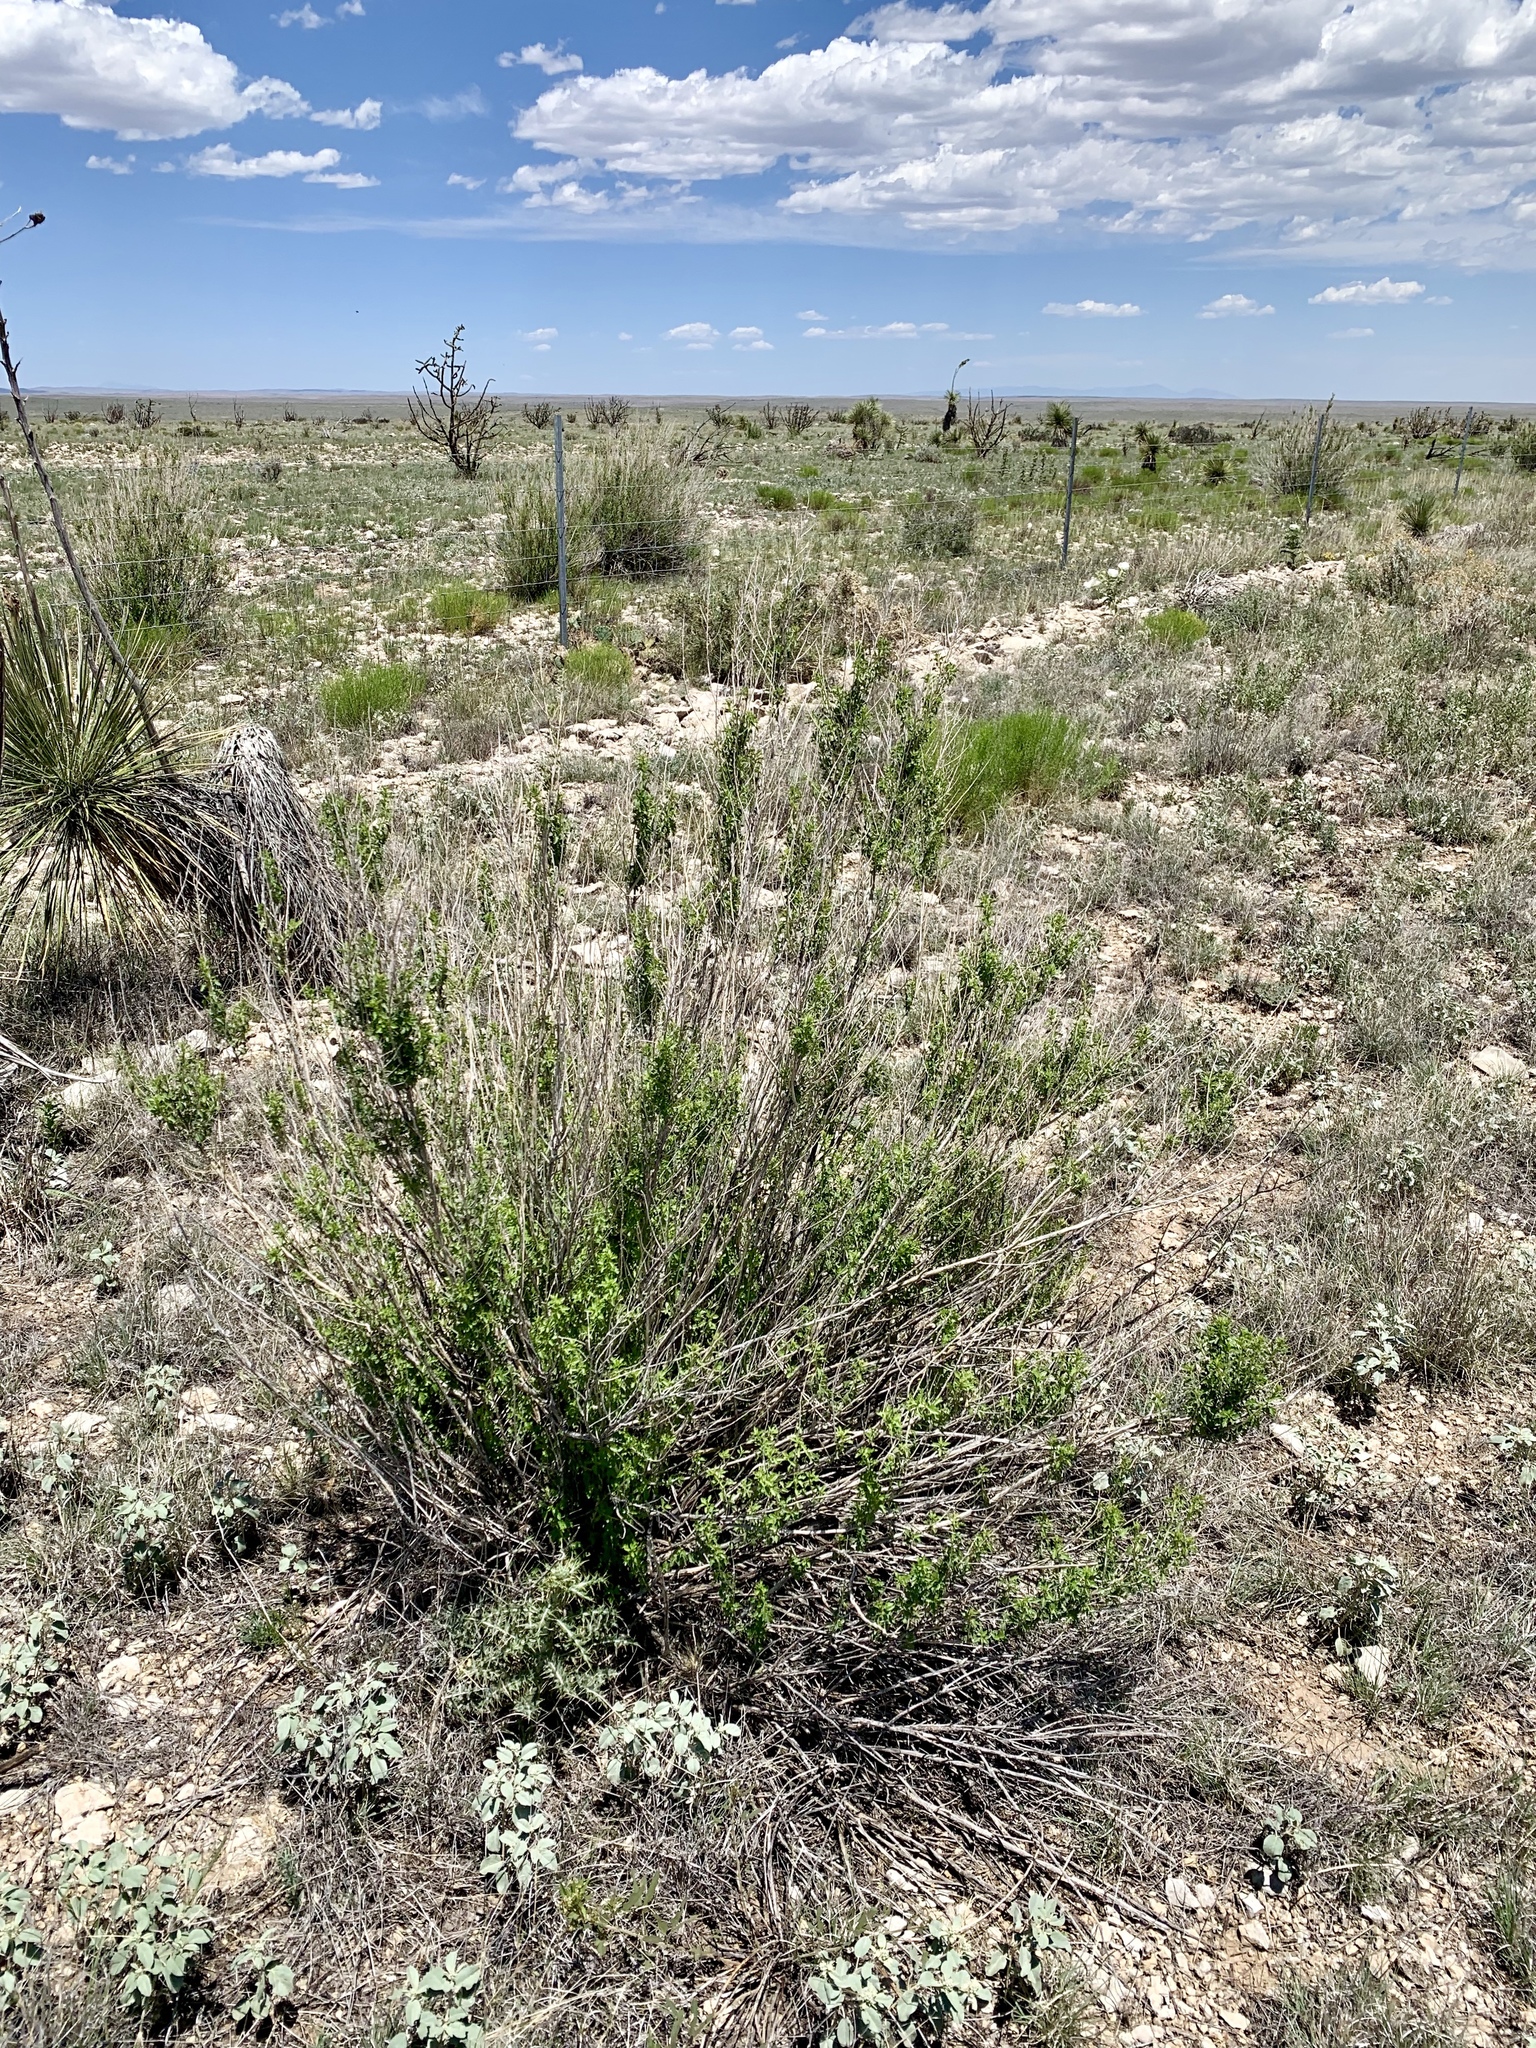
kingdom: Plantae
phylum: Tracheophyta
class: Magnoliopsida
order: Rosales
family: Rosaceae
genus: Fallugia
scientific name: Fallugia paradoxa
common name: Apache-plume
